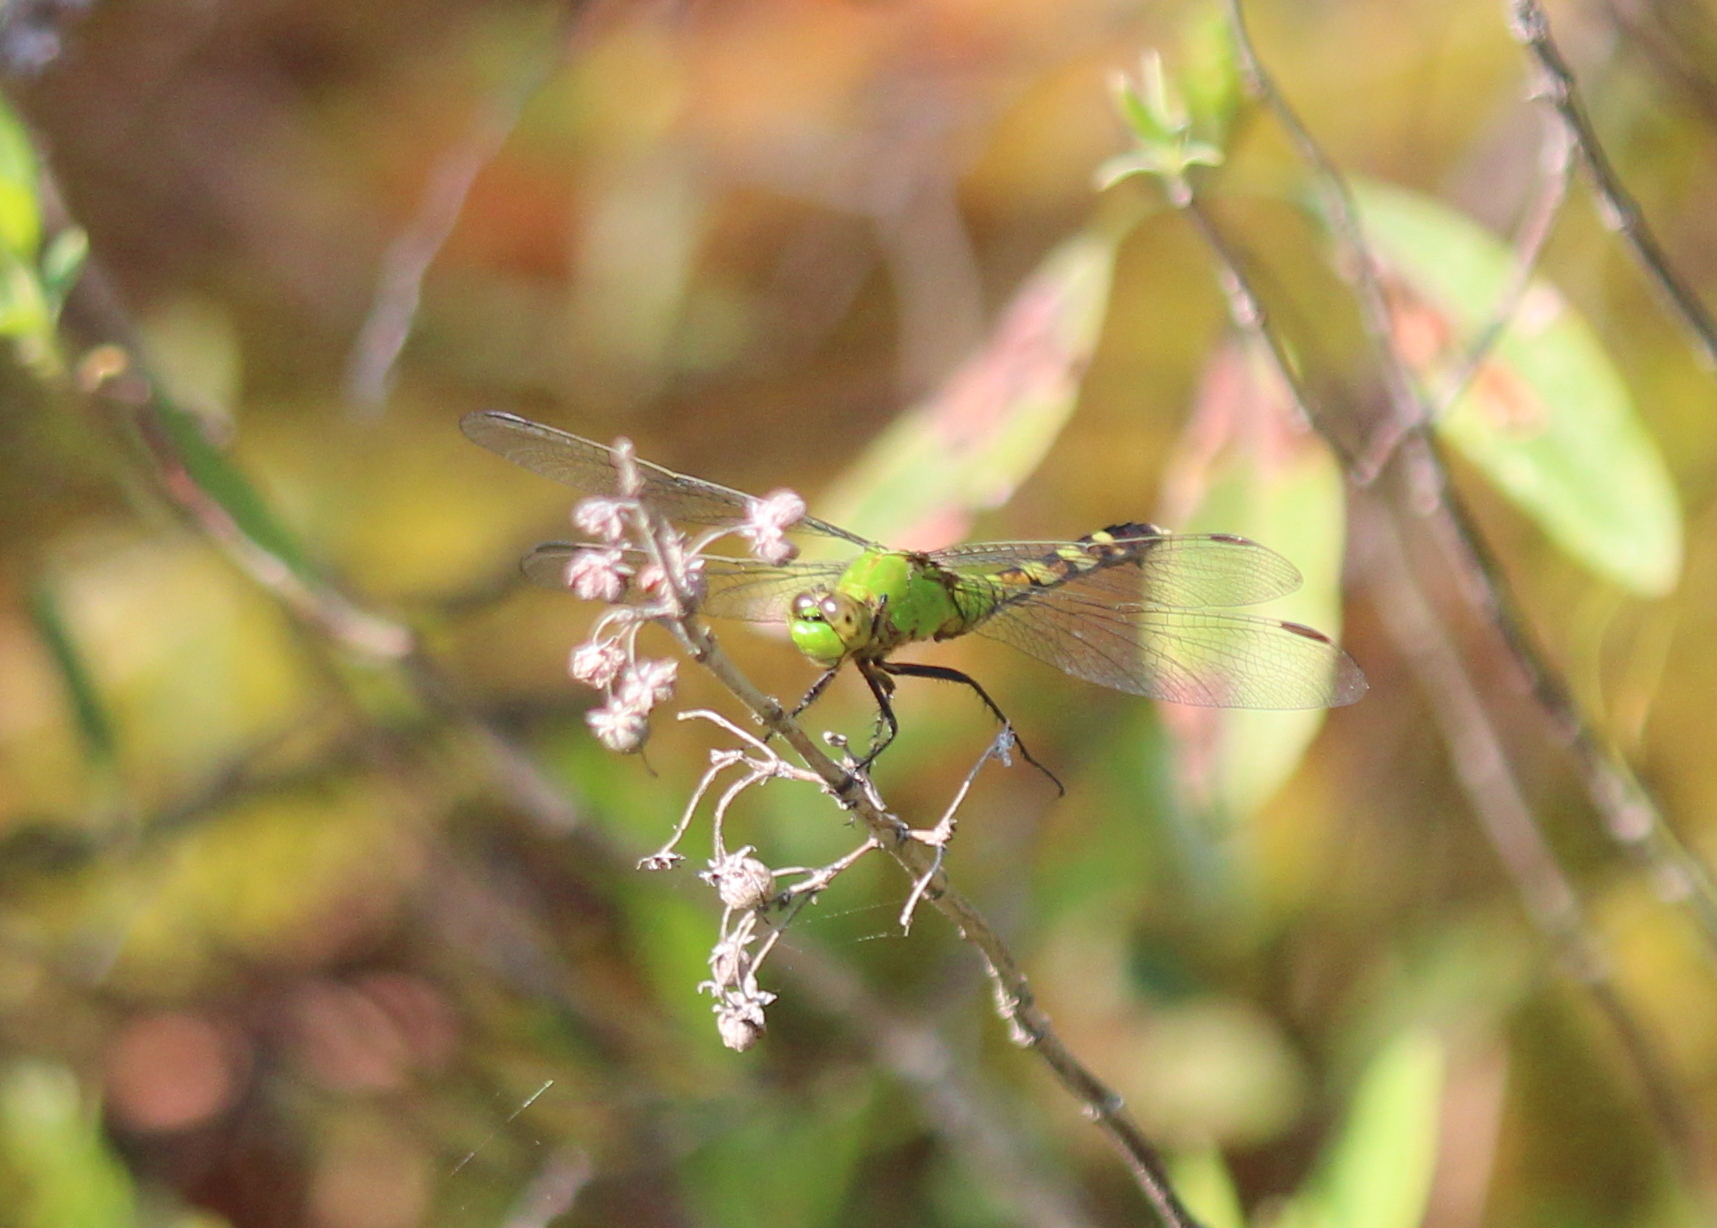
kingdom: Animalia
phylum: Arthropoda
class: Insecta
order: Odonata
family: Libellulidae
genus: Erythemis
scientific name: Erythemis simplicicollis
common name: Eastern pondhawk
